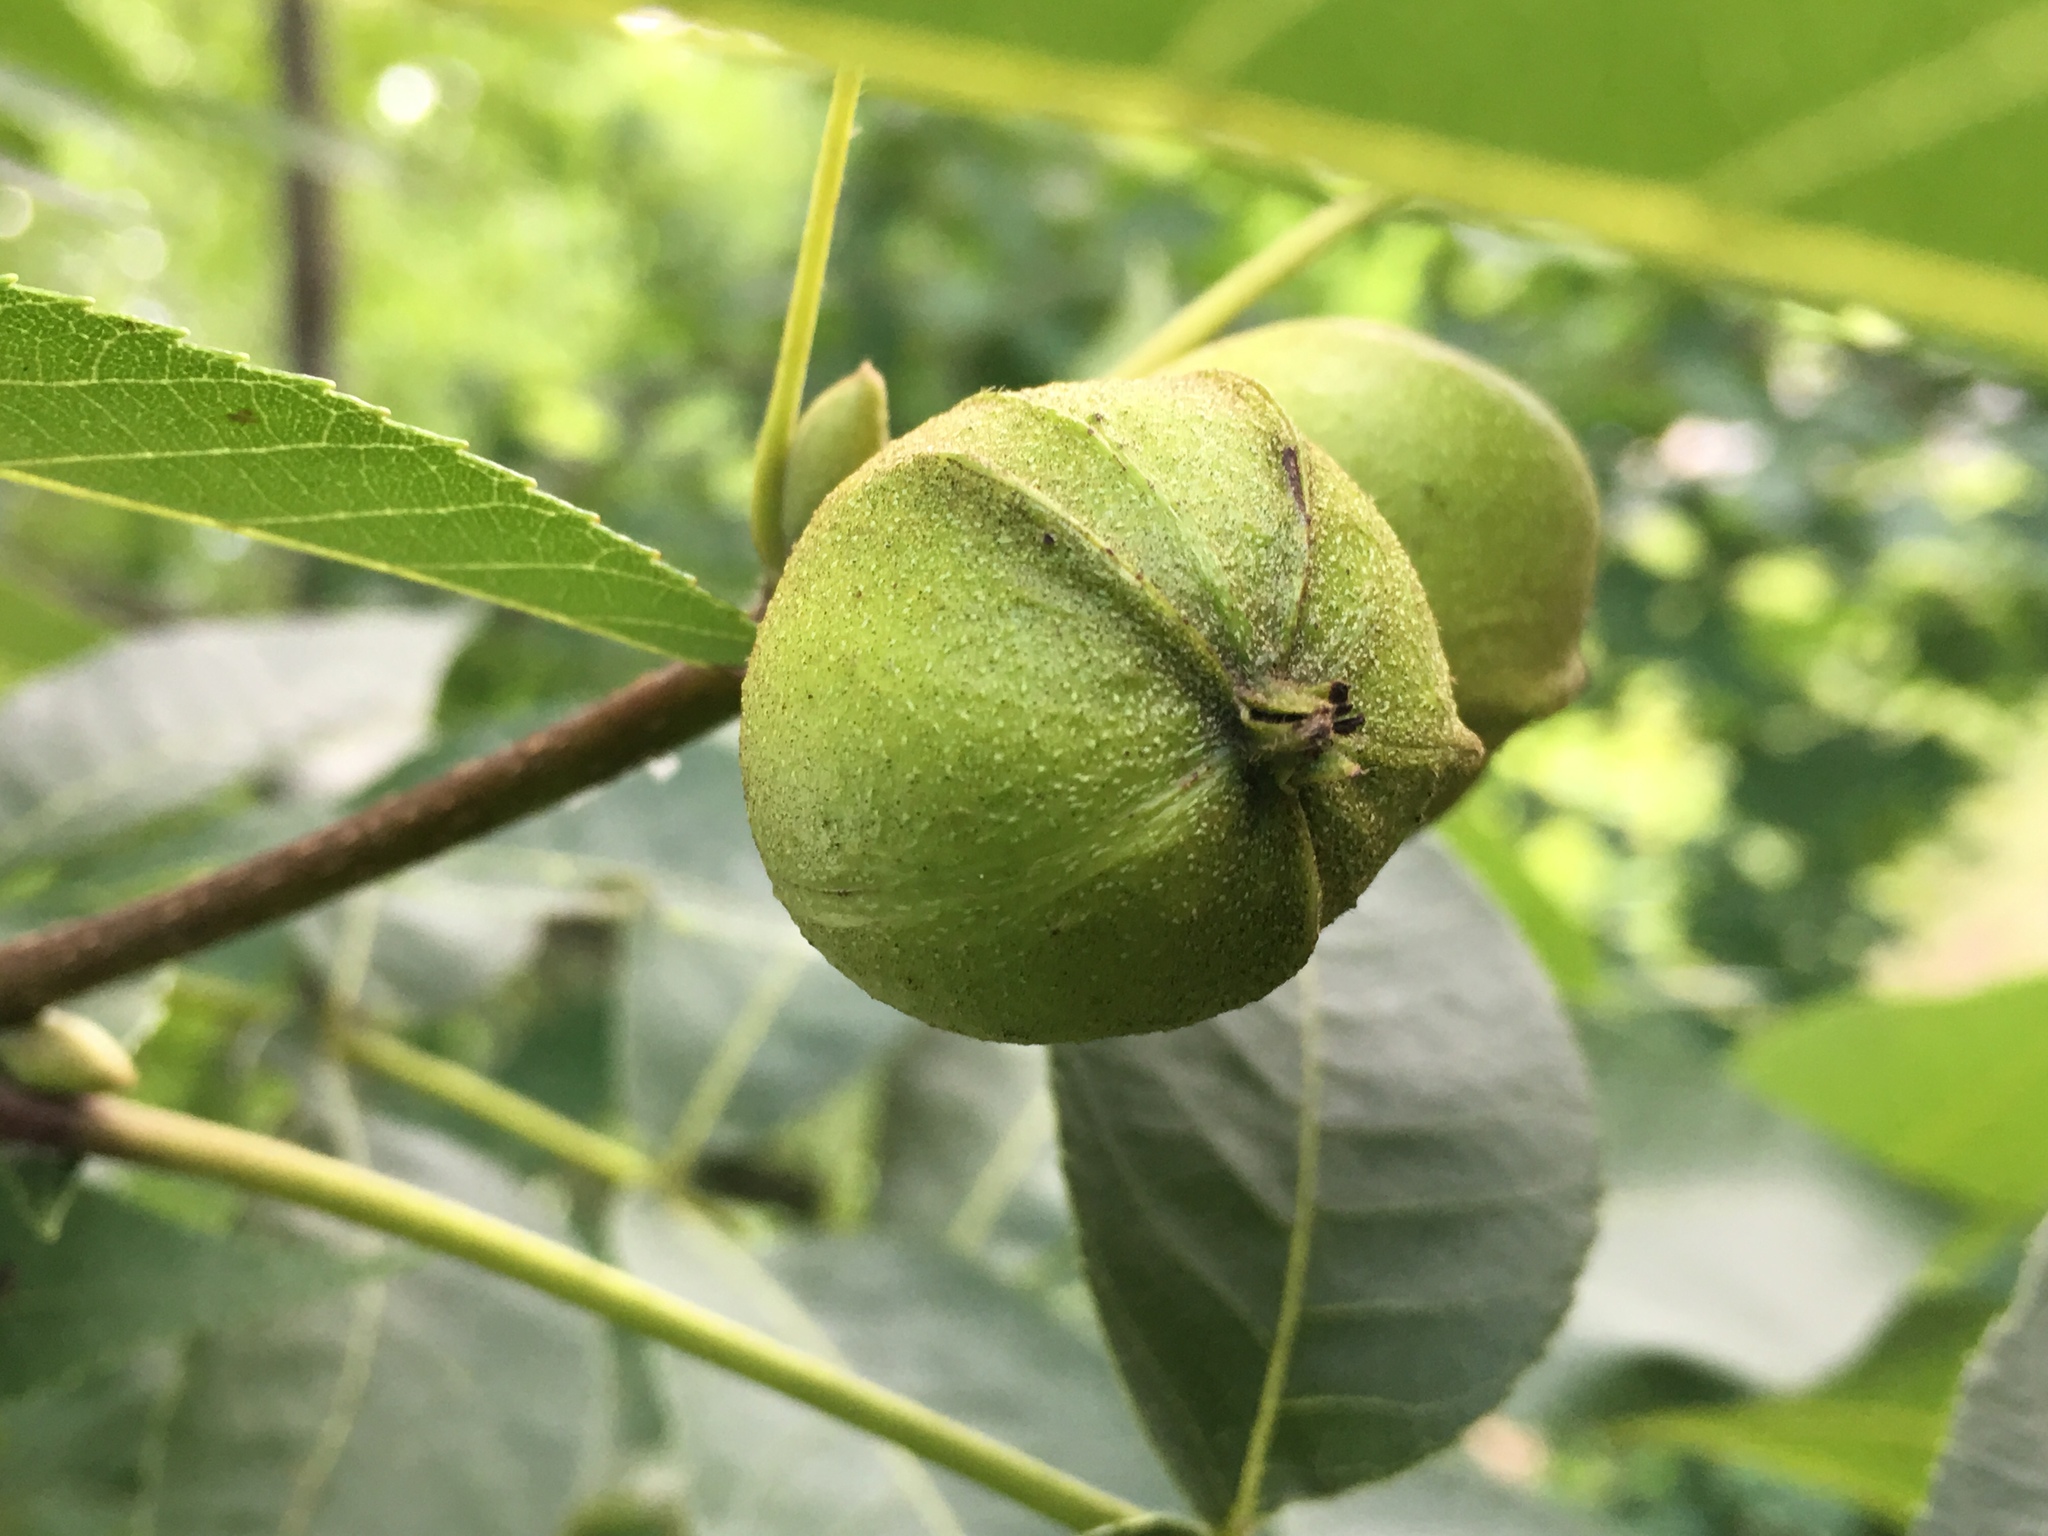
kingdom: Plantae
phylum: Tracheophyta
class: Magnoliopsida
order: Fagales
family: Juglandaceae
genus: Carya
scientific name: Carya cordiformis
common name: Bitternut hickory
